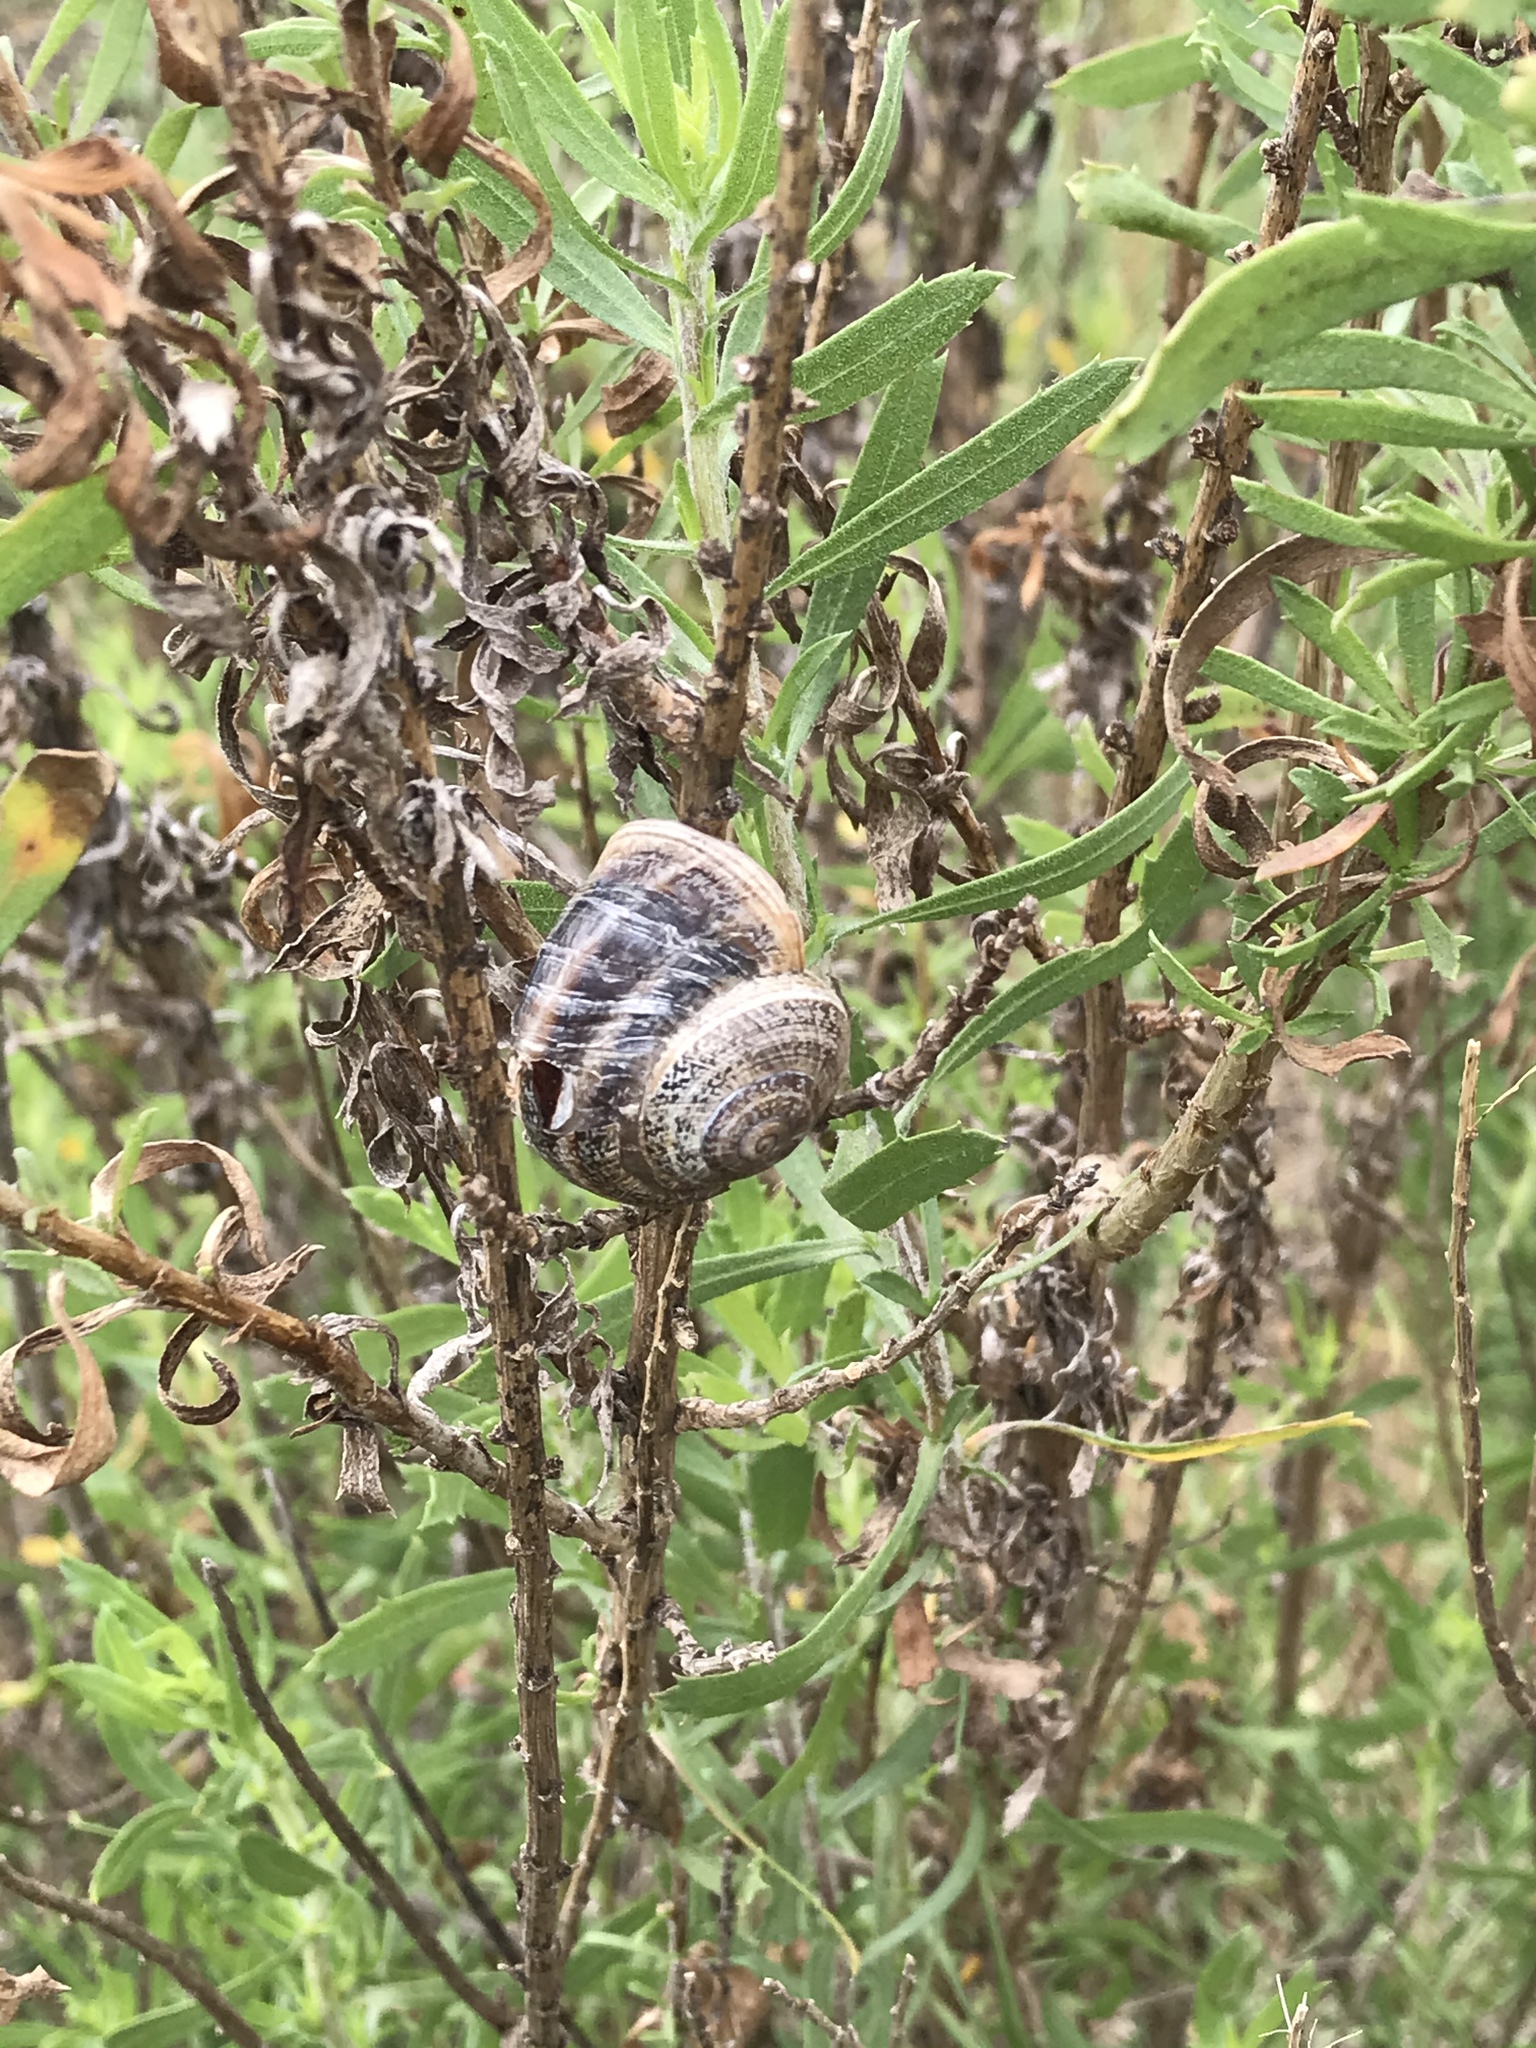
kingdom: Animalia
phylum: Mollusca
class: Gastropoda
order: Stylommatophora
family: Helicidae
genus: Otala
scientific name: Otala lactea
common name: Milk snail
